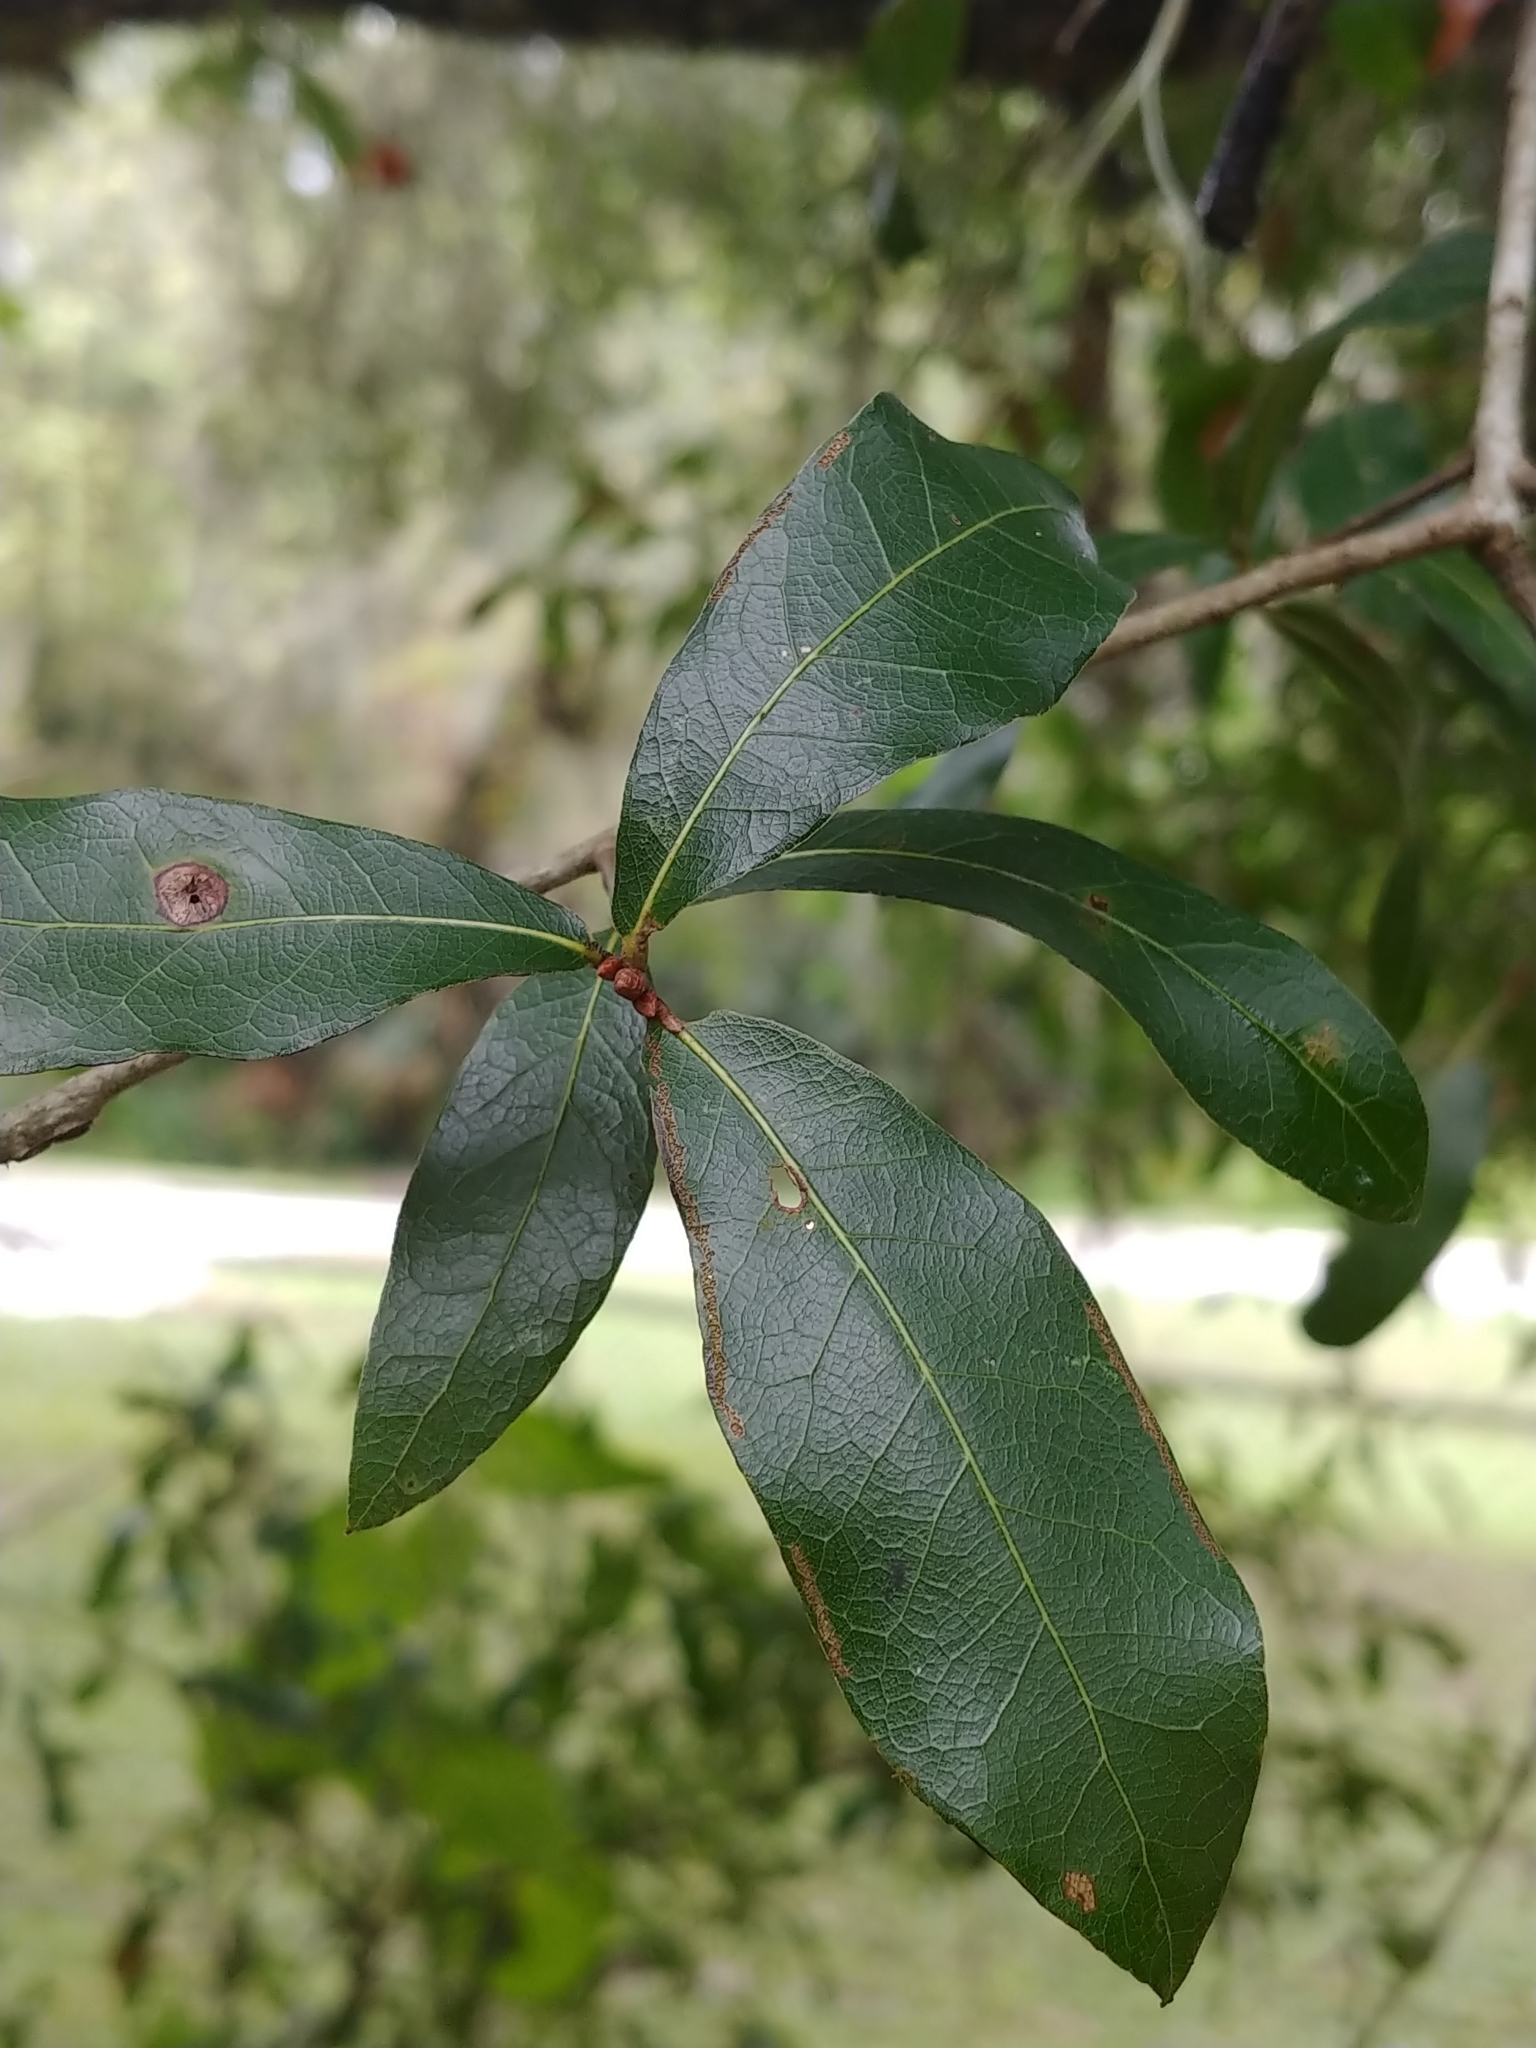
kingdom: Plantae
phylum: Tracheophyta
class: Magnoliopsida
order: Fagales
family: Fagaceae
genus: Quercus
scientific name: Quercus hemisphaerica
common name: Darlington oak
